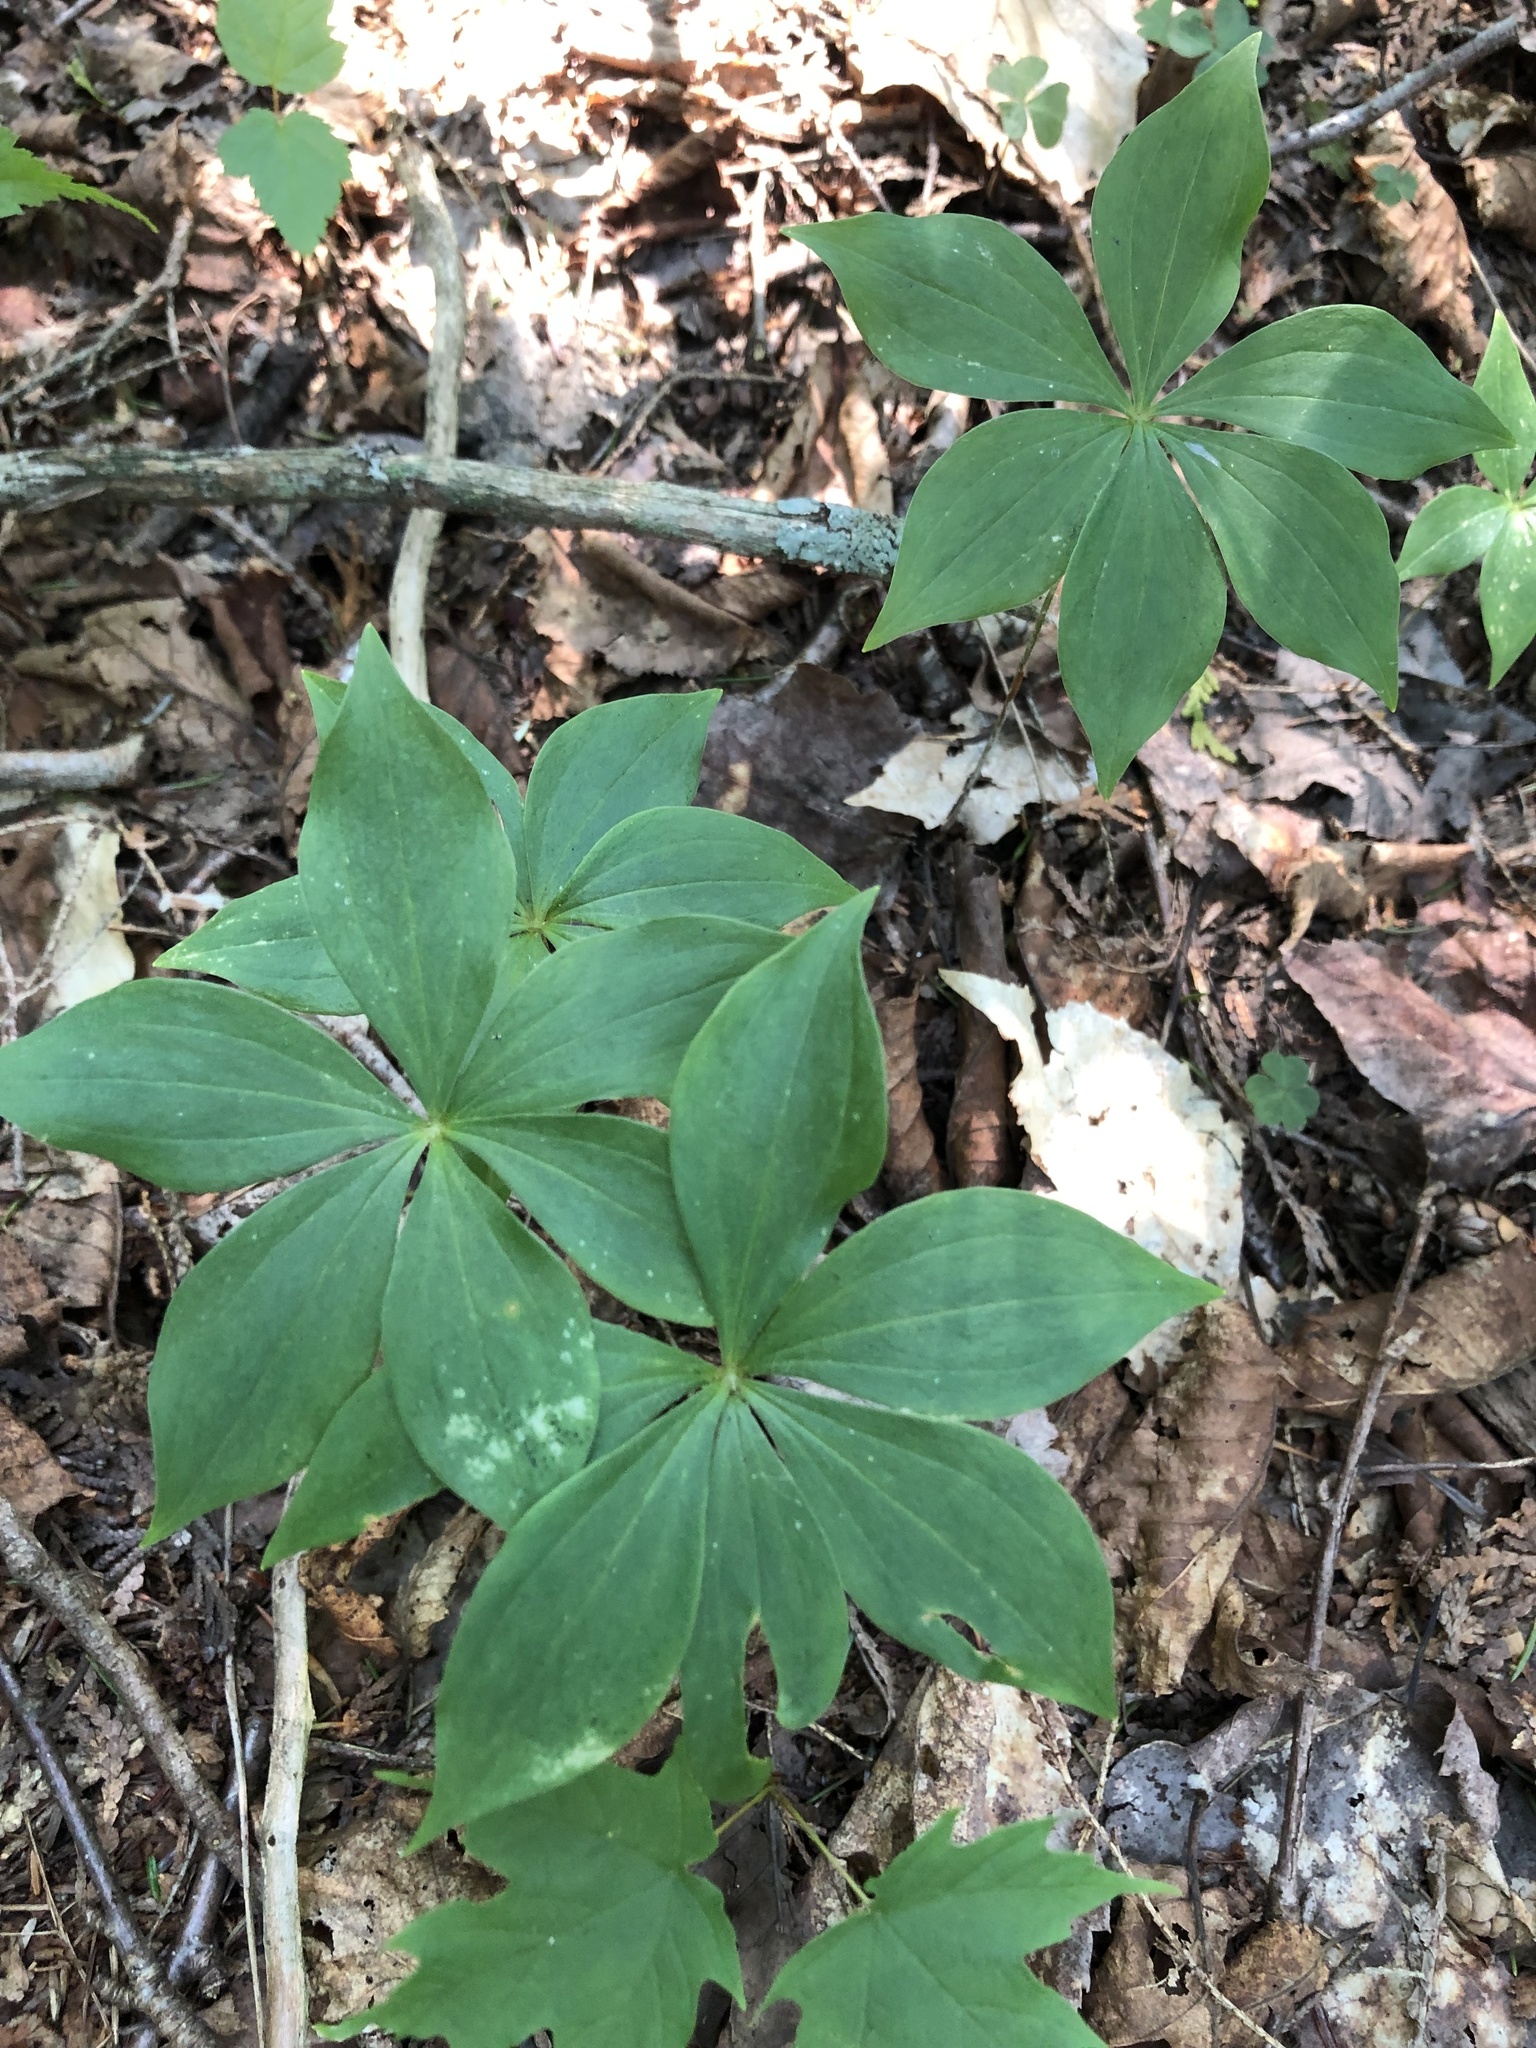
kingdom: Plantae
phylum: Tracheophyta
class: Liliopsida
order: Liliales
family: Liliaceae
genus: Medeola
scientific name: Medeola virginiana
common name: Indian cucumber-root
